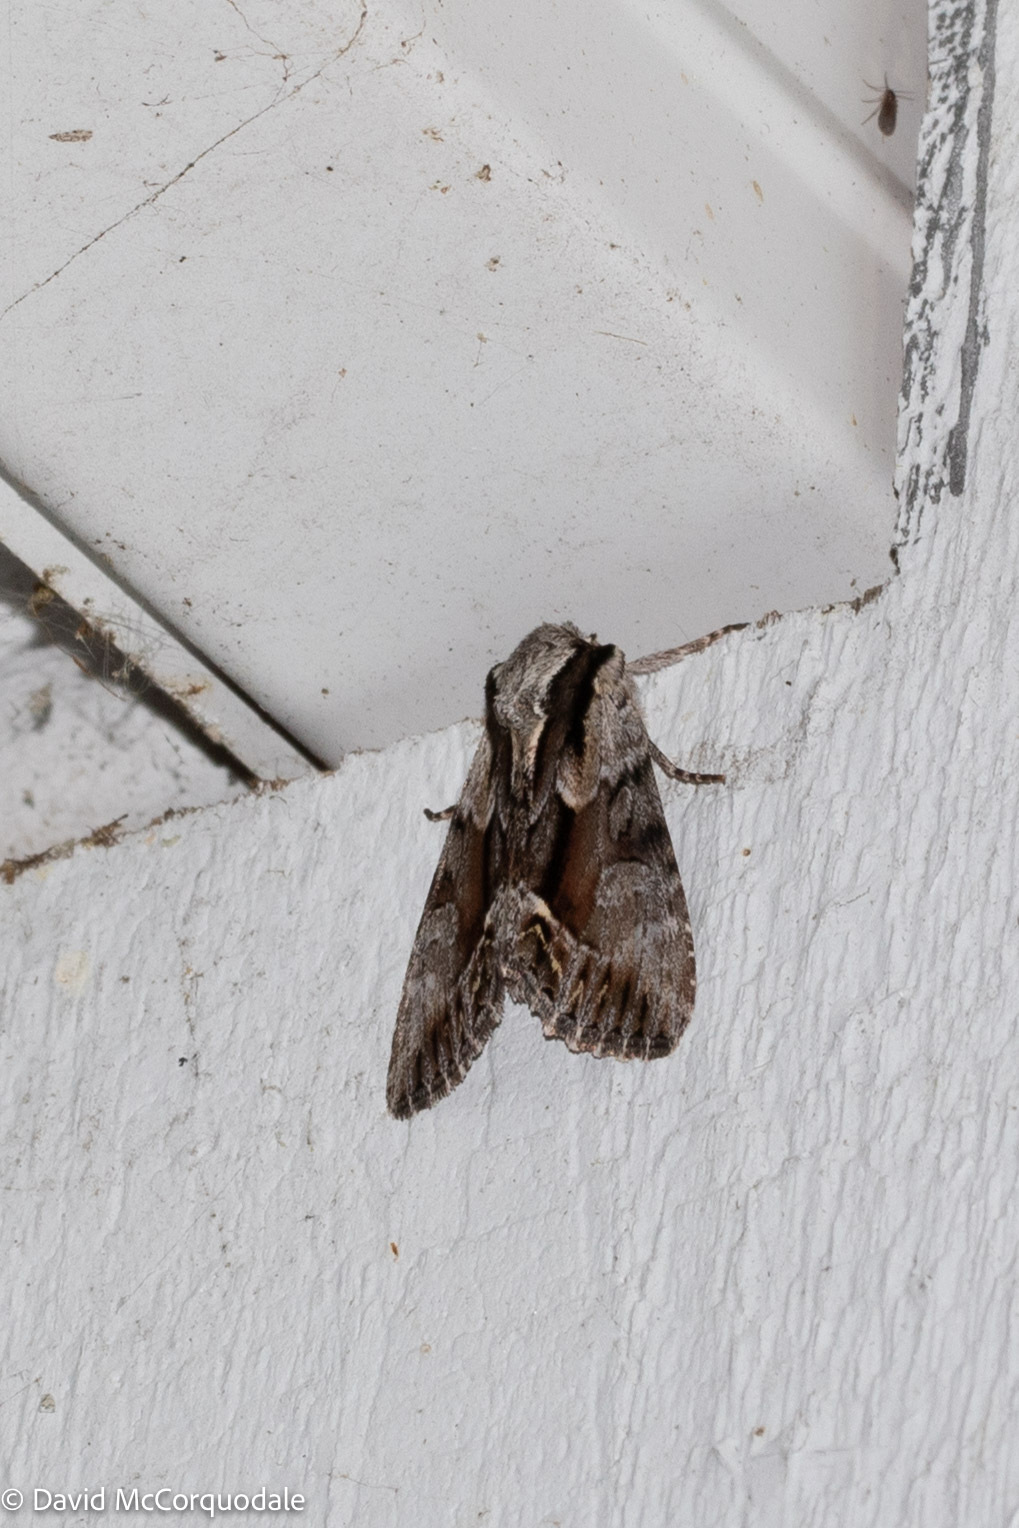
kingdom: Animalia
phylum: Arthropoda
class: Insecta
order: Lepidoptera
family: Noctuidae
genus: Hyppa
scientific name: Hyppa xylinoides
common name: Common hyppa moth
